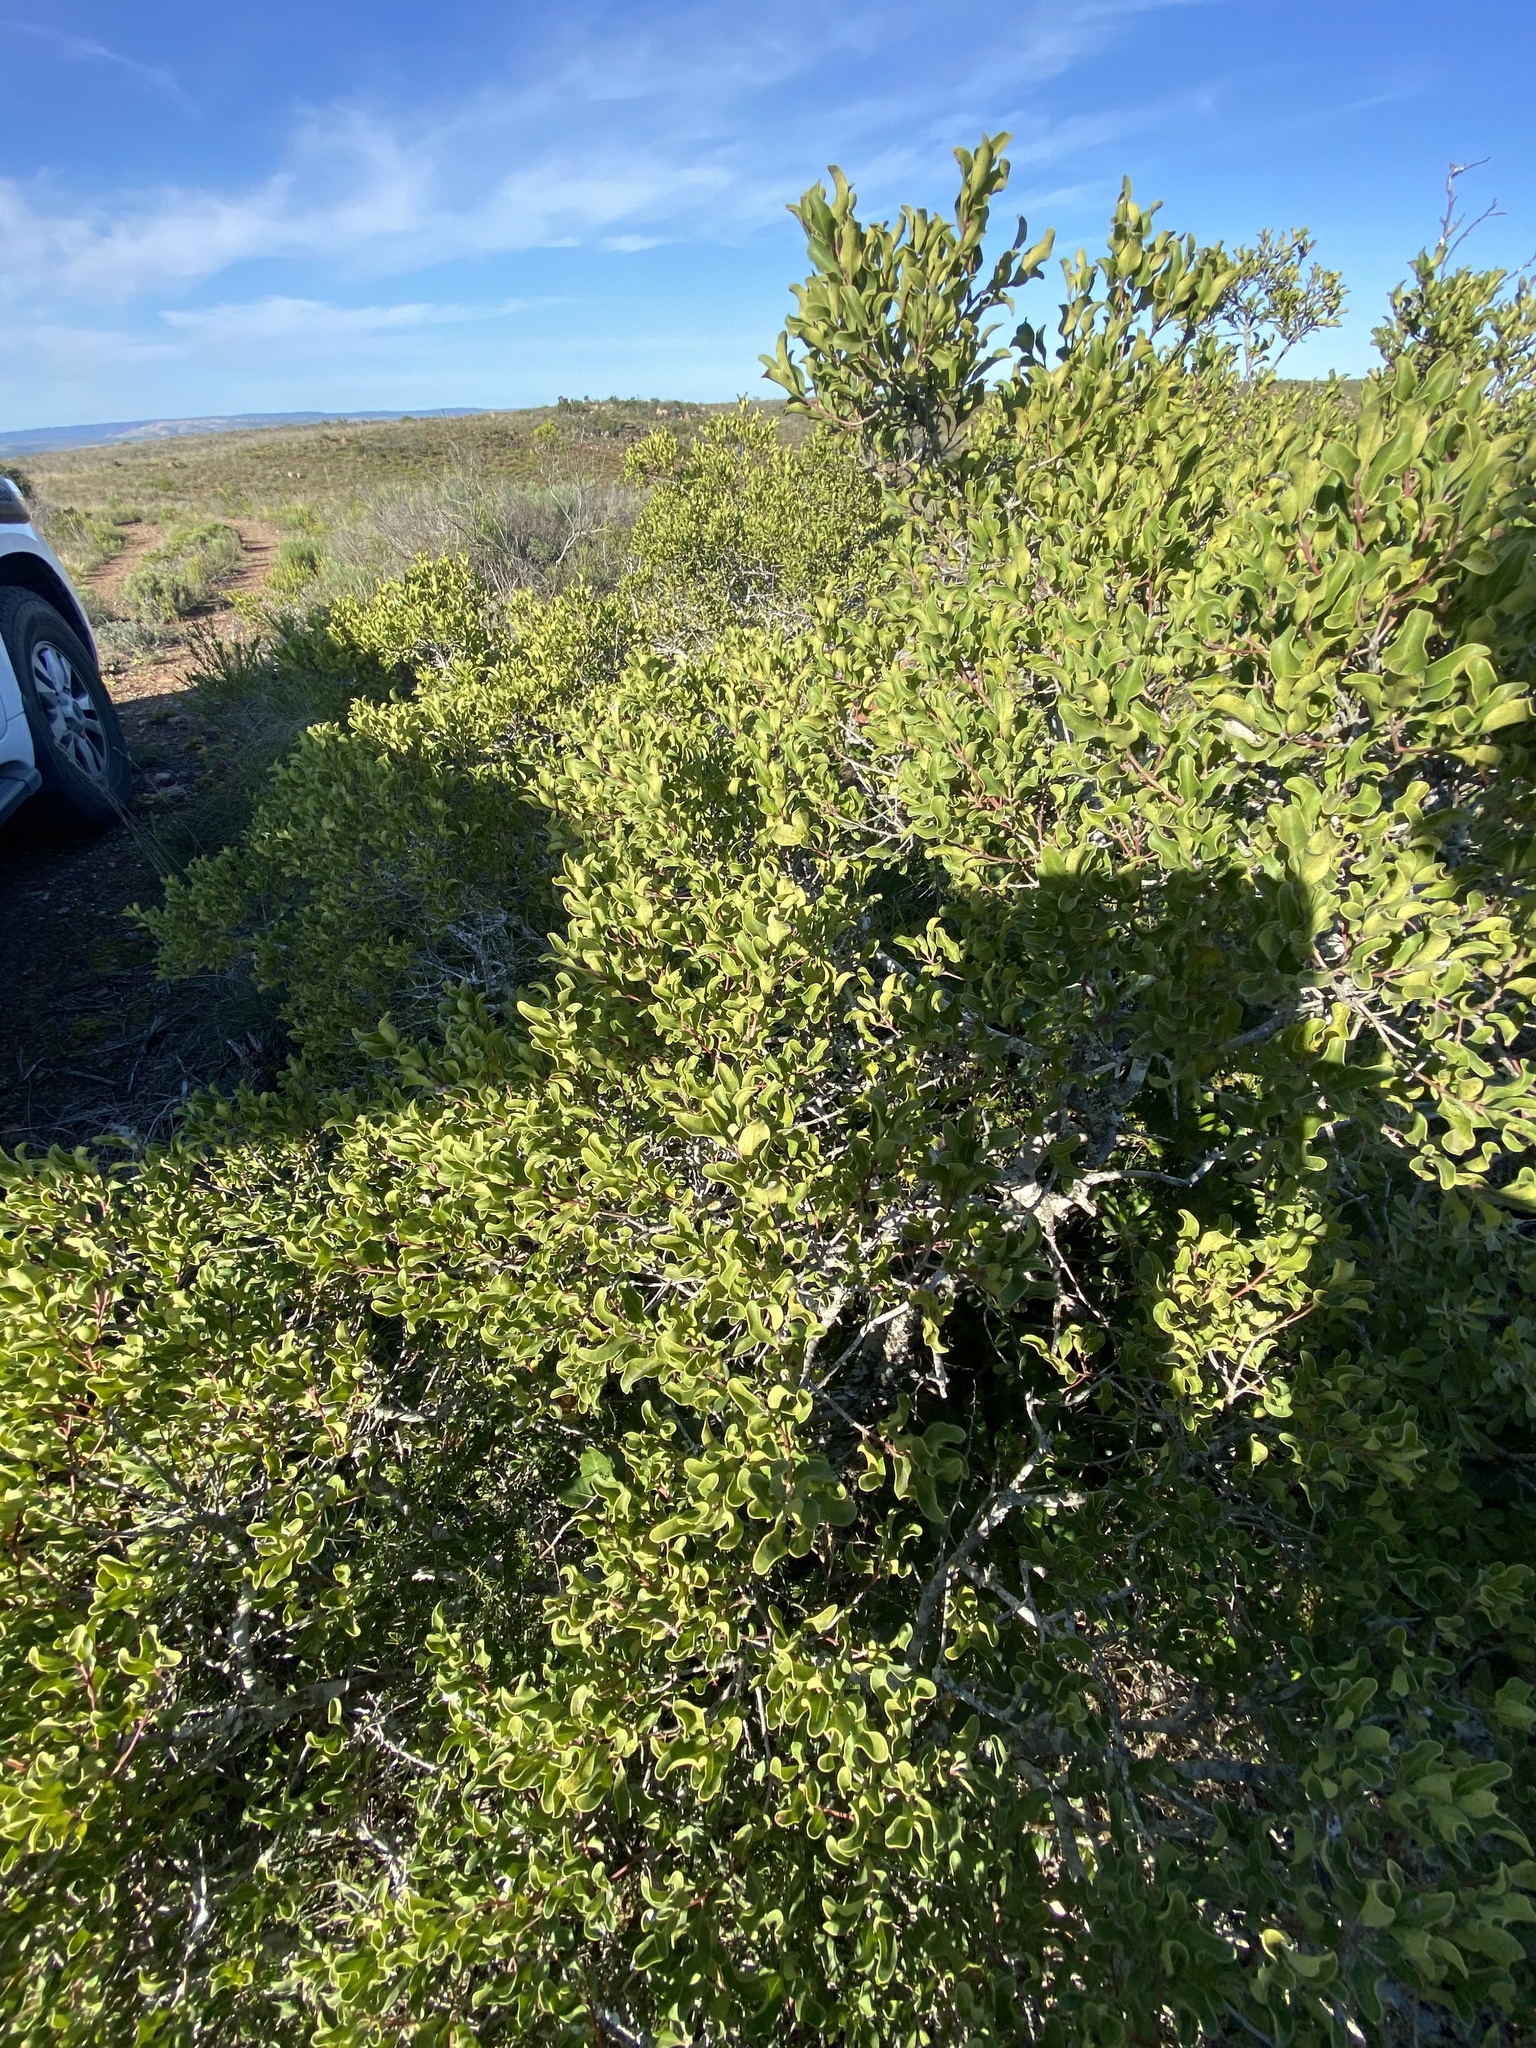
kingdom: Plantae
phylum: Tracheophyta
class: Magnoliopsida
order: Ericales
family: Ebenaceae
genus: Euclea
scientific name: Euclea undulata
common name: Small-leaved guarri
